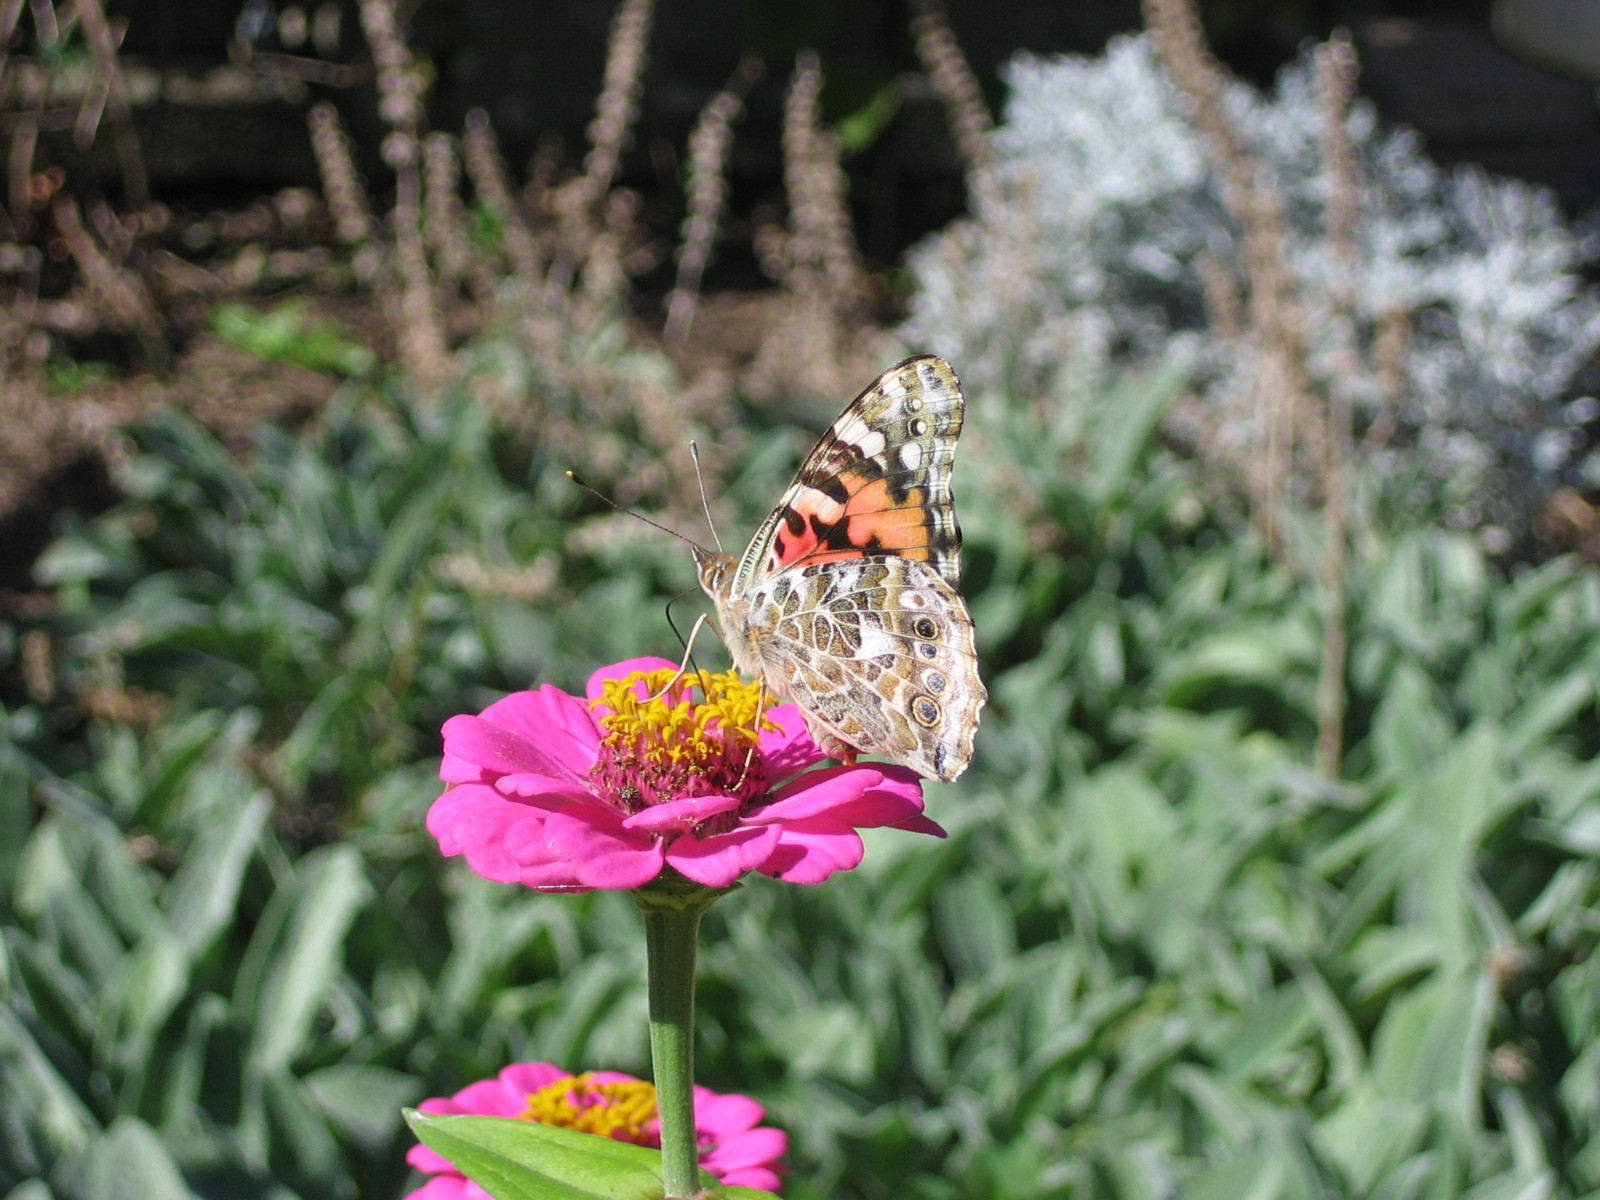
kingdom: Animalia
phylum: Arthropoda
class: Insecta
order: Lepidoptera
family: Nymphalidae
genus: Vanessa
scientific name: Vanessa cardui
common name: Painted lady
